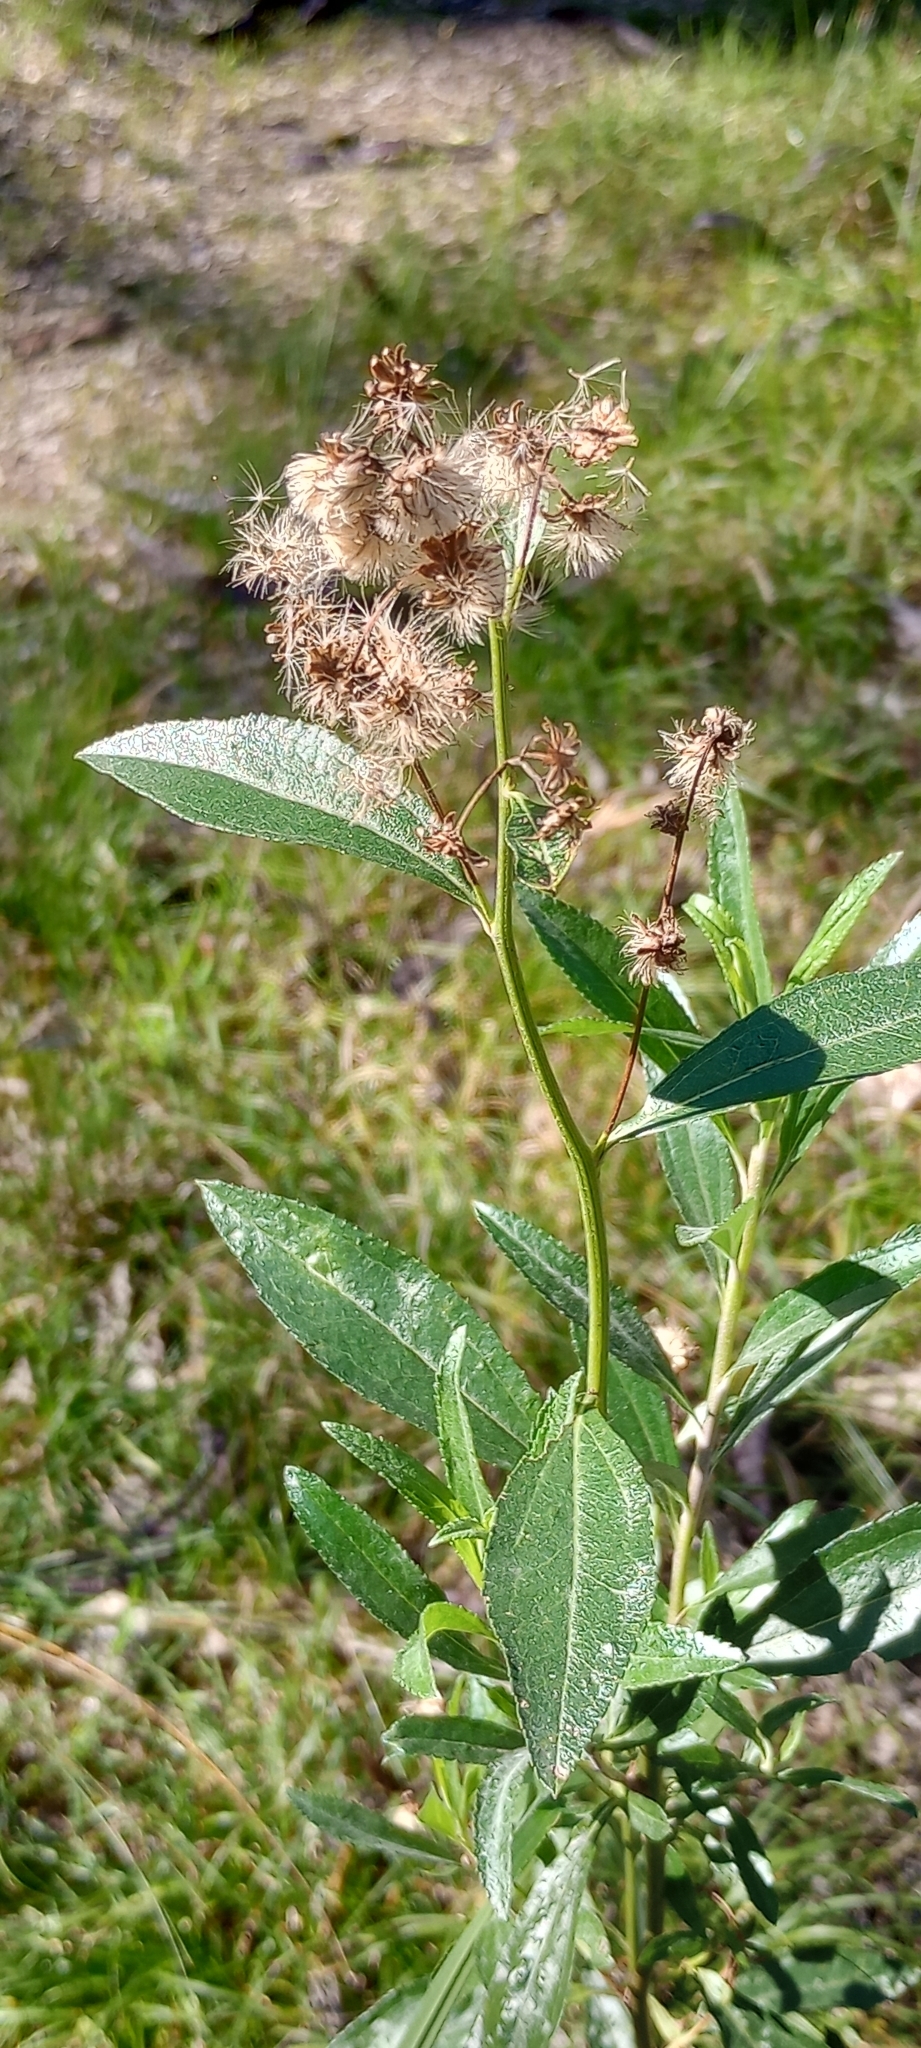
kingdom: Plantae
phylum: Tracheophyta
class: Magnoliopsida
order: Asterales
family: Asteraceae
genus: Baccharis
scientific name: Baccharis punctulata
